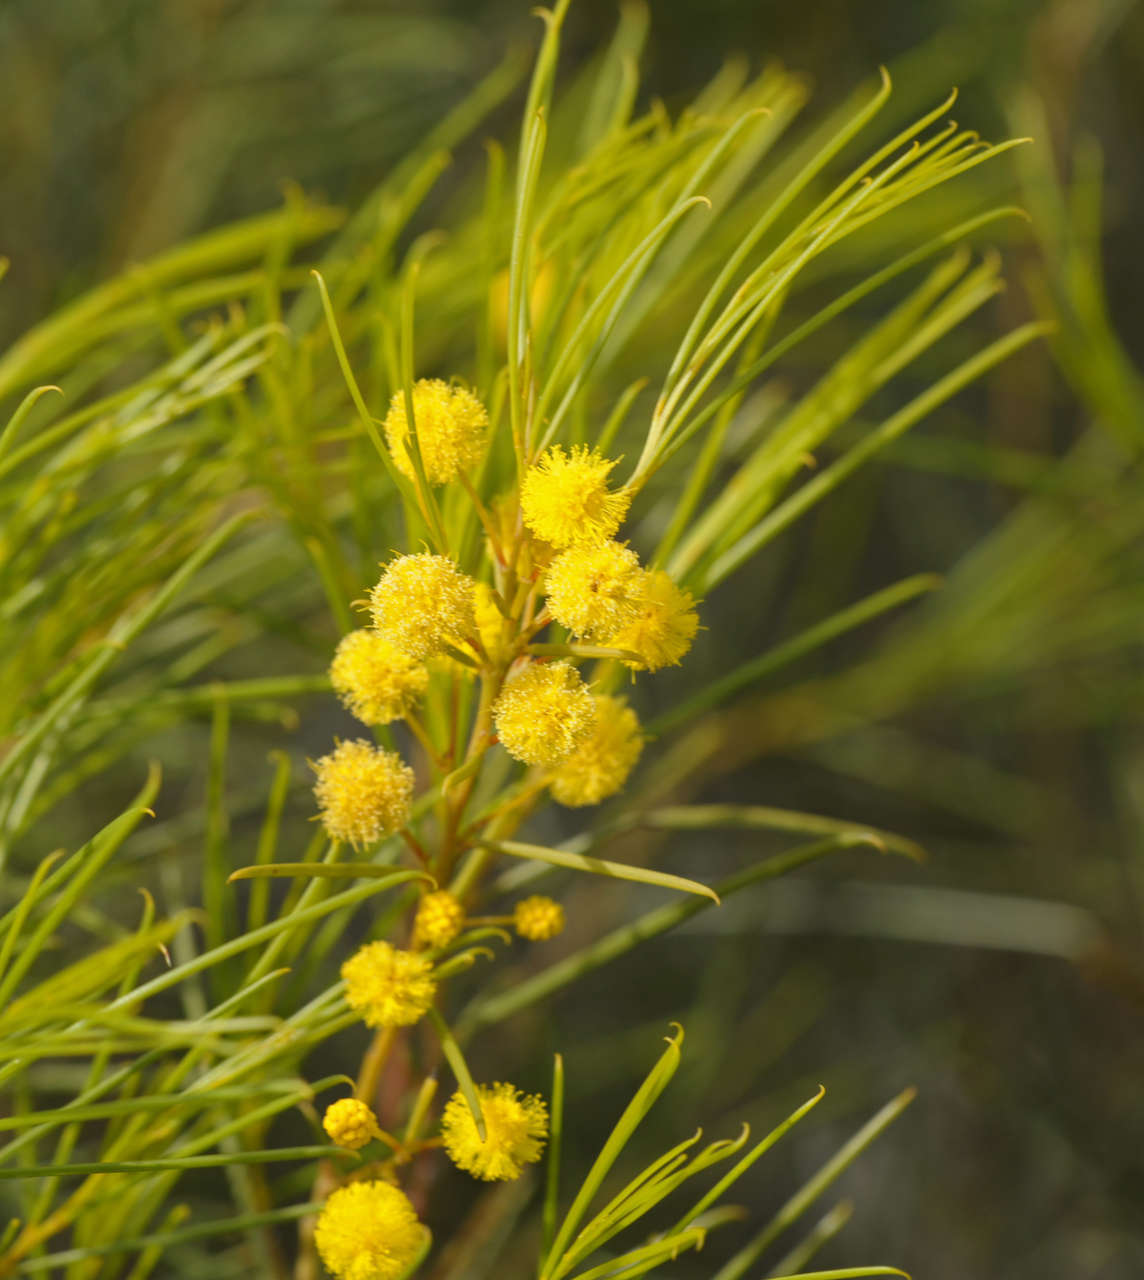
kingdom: Plantae
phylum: Tracheophyta
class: Magnoliopsida
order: Fabales
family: Fabaceae
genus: Acacia
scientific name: Acacia euthycarpa
